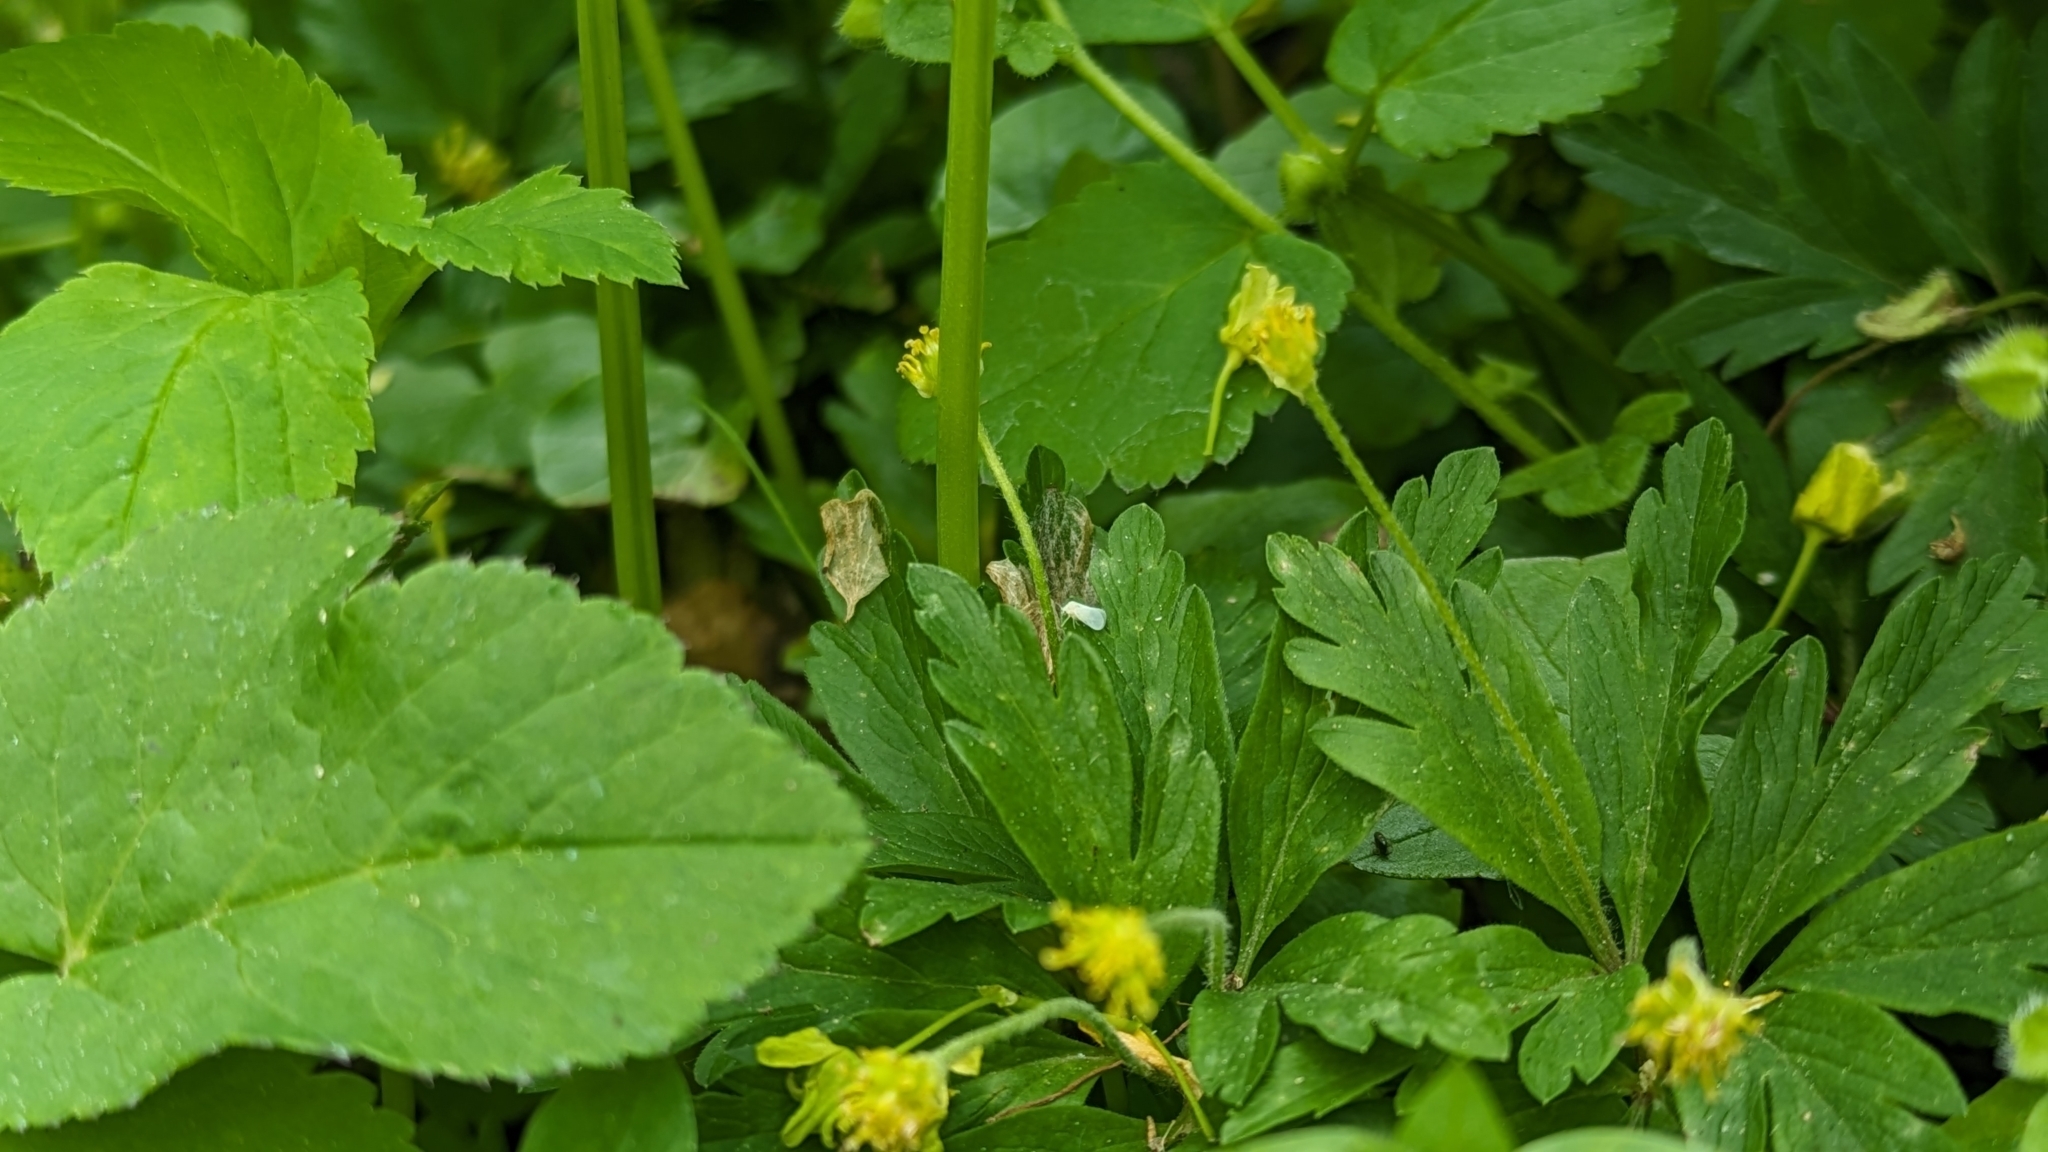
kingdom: Plantae
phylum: Tracheophyta
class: Magnoliopsida
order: Ranunculales
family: Ranunculaceae
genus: Anemone
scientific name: Anemone ranunculoides
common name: Yellow anemone
